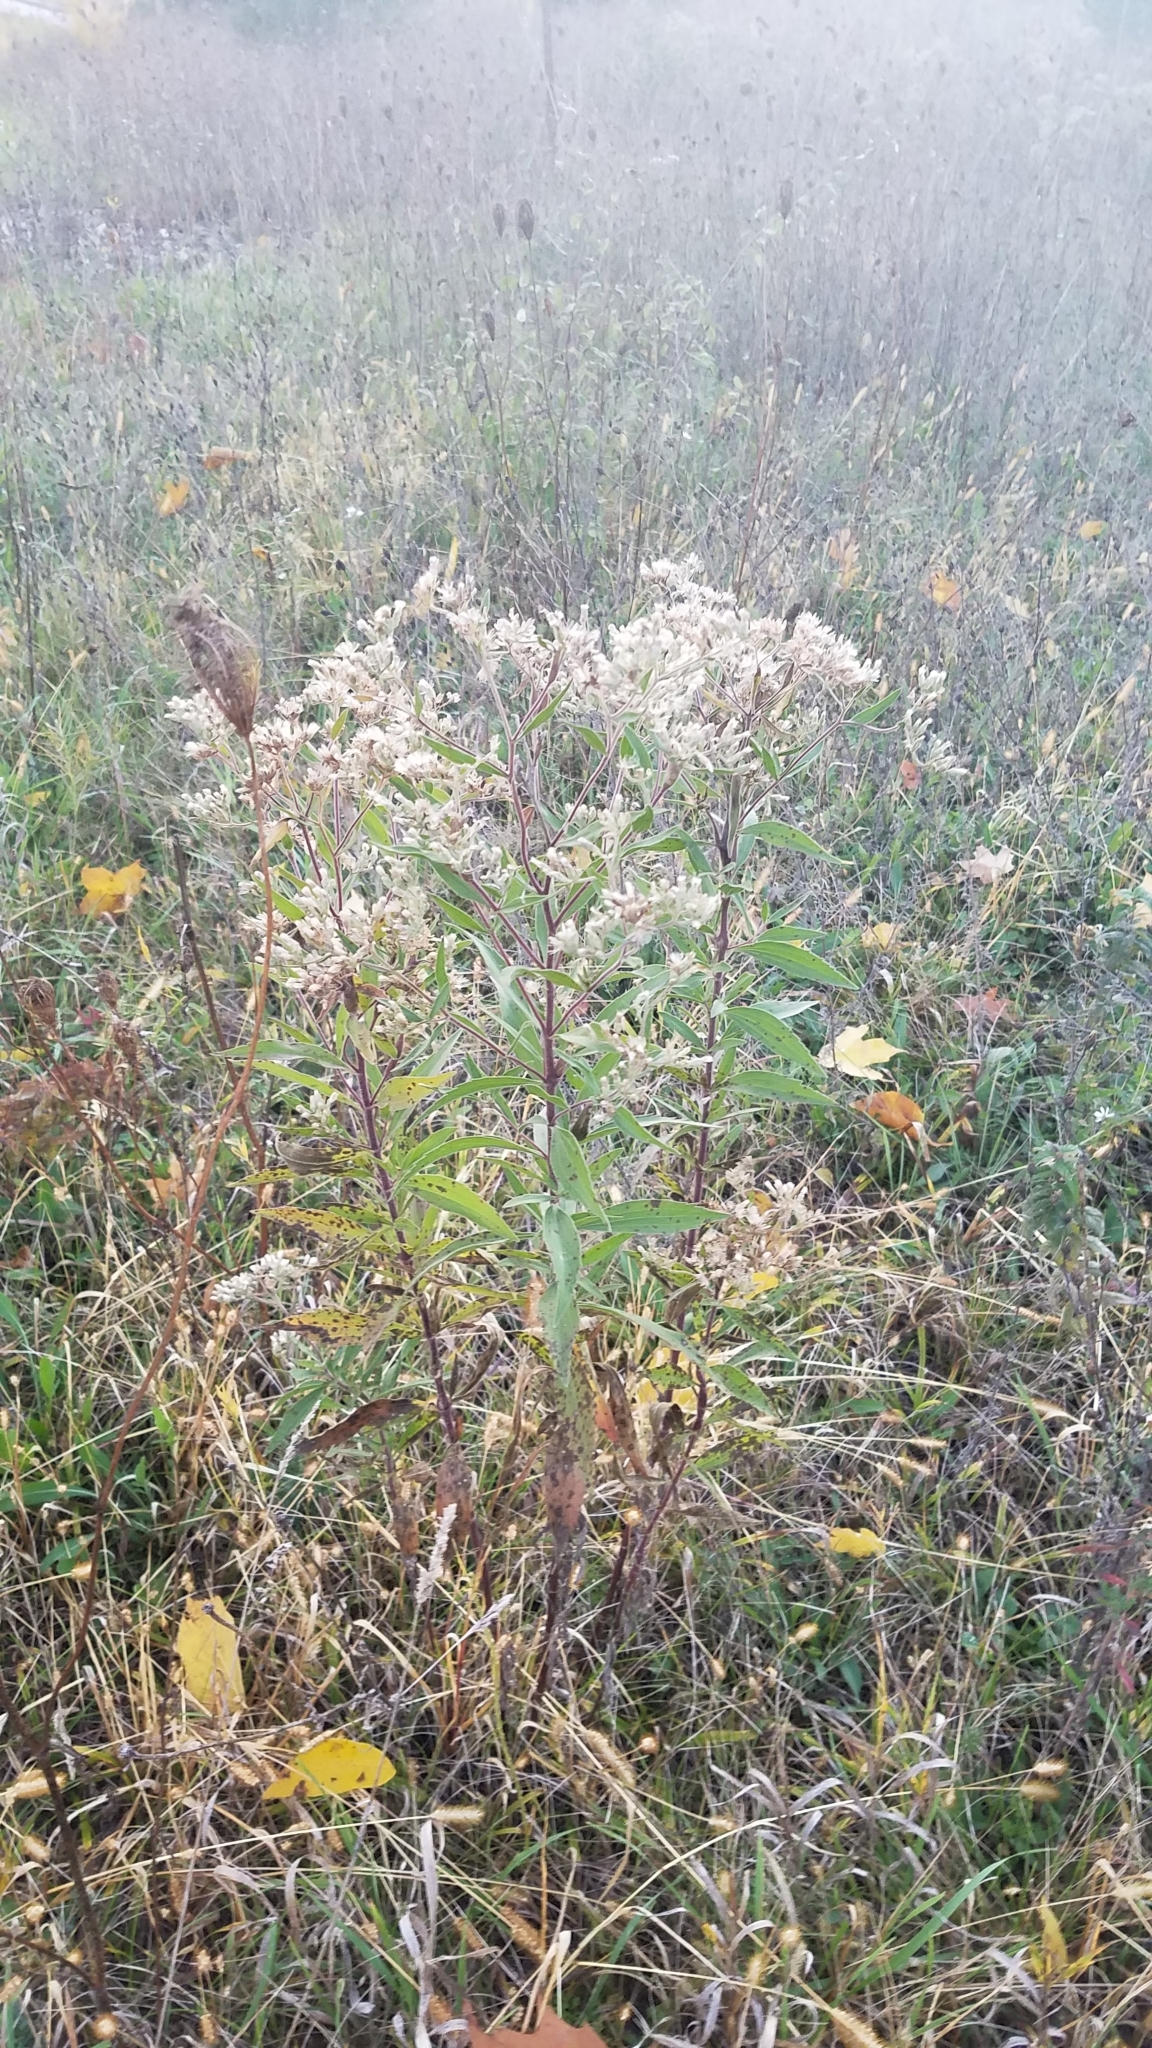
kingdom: Plantae
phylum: Tracheophyta
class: Magnoliopsida
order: Asterales
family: Asteraceae
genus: Eupatorium
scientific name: Eupatorium altissimum
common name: Tall thoroughwort
